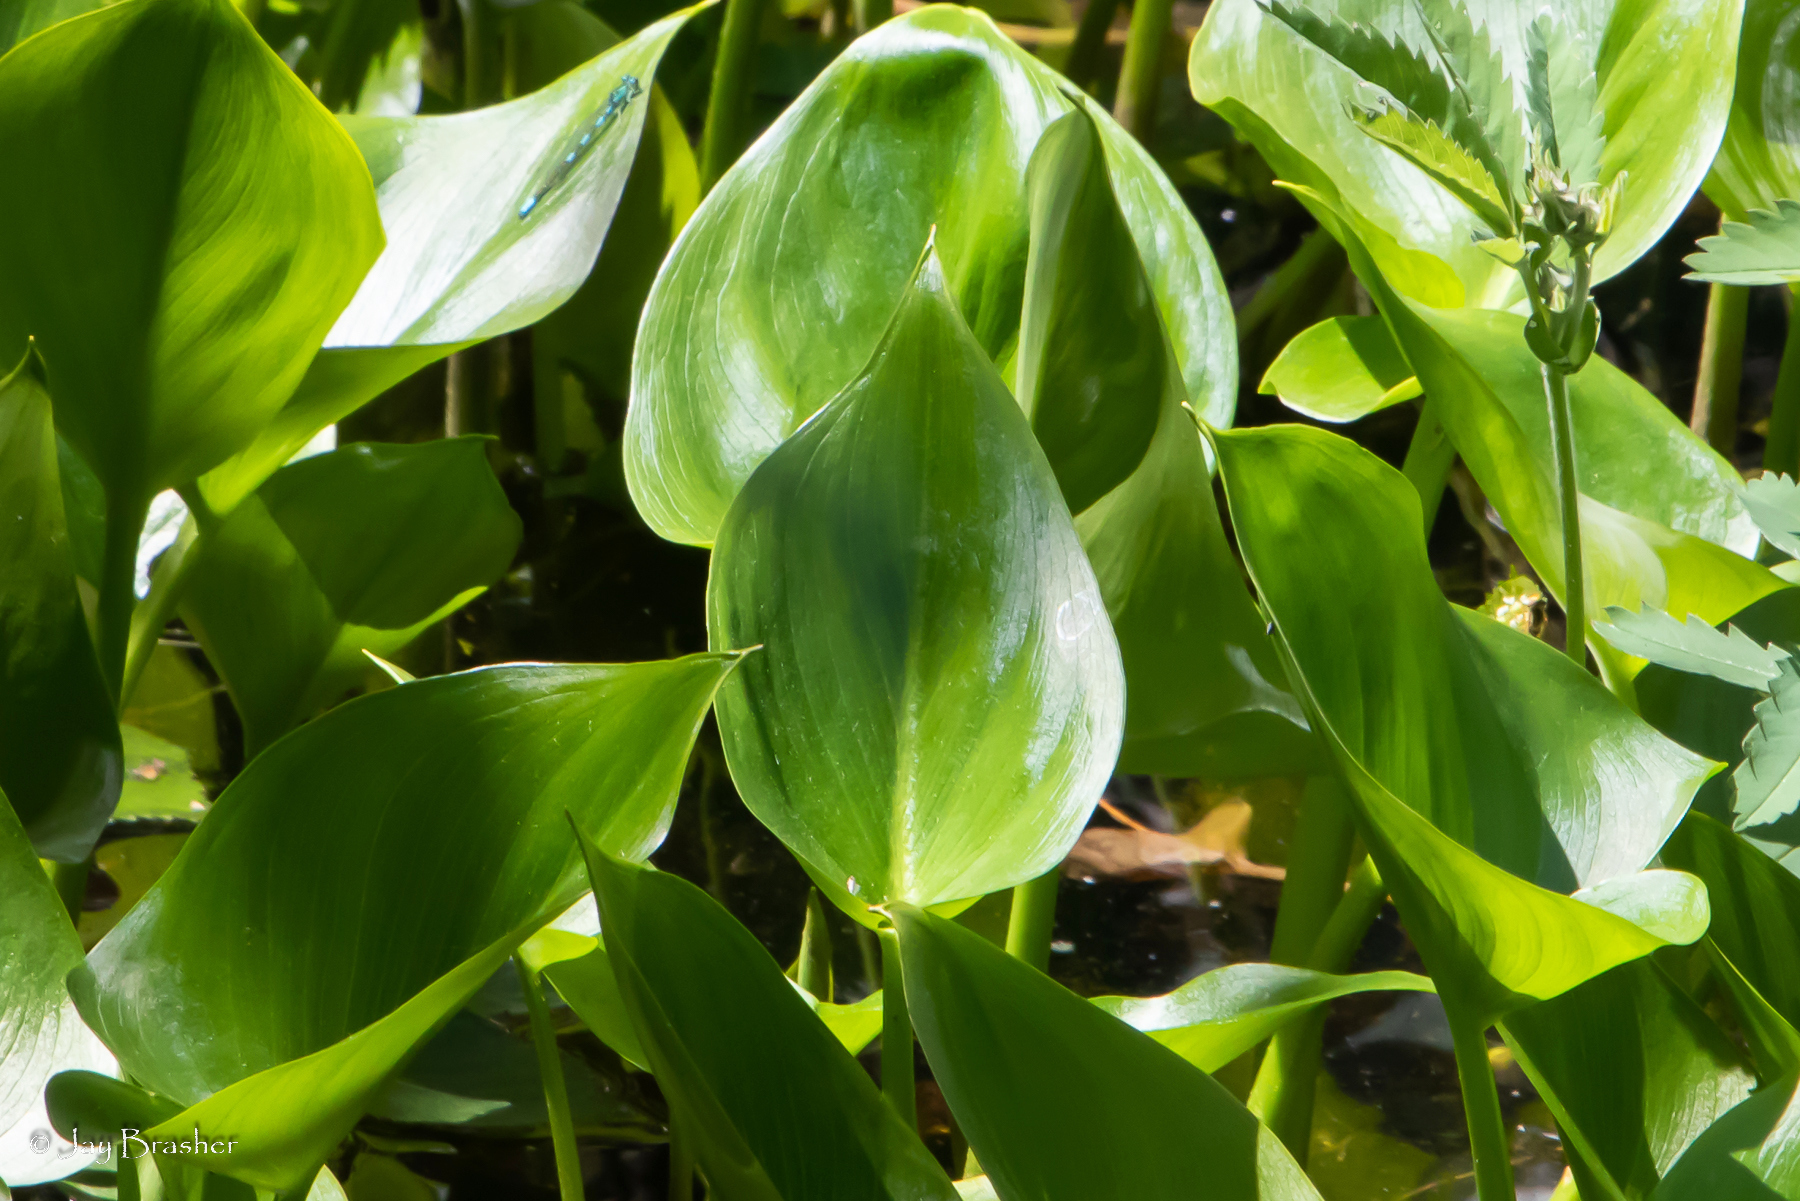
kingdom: Plantae
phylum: Tracheophyta
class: Liliopsida
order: Alismatales
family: Araceae
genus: Calla
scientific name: Calla palustris
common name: Bog arum
